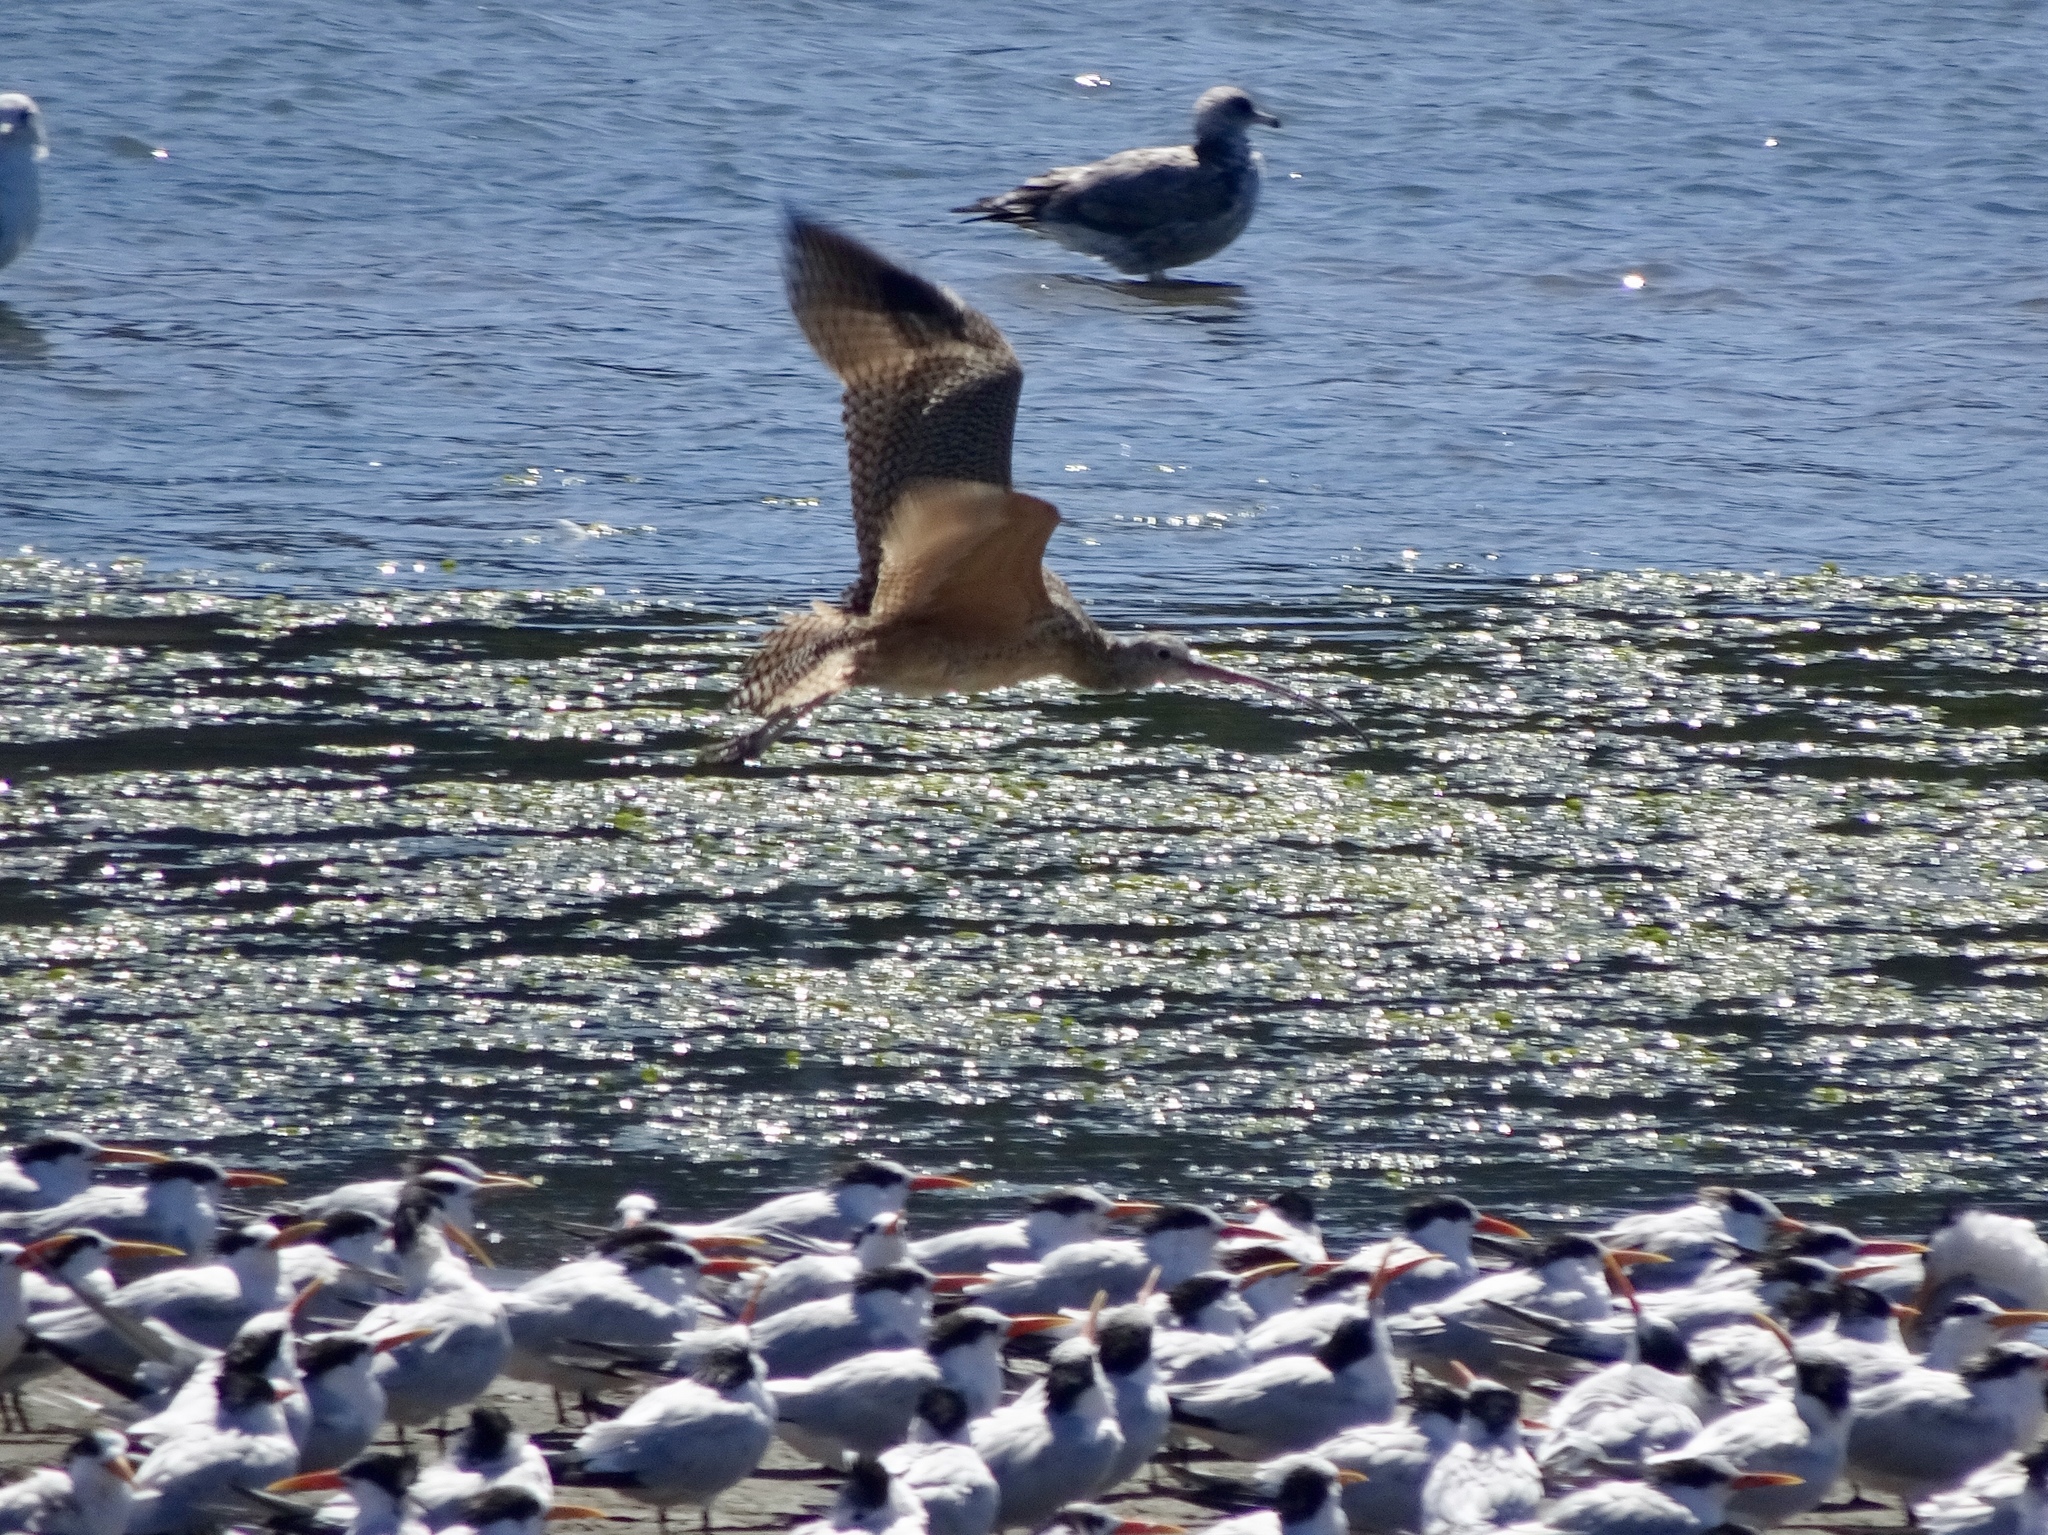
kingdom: Animalia
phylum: Chordata
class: Aves
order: Charadriiformes
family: Scolopacidae
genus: Numenius
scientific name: Numenius americanus
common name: Long-billed curlew
